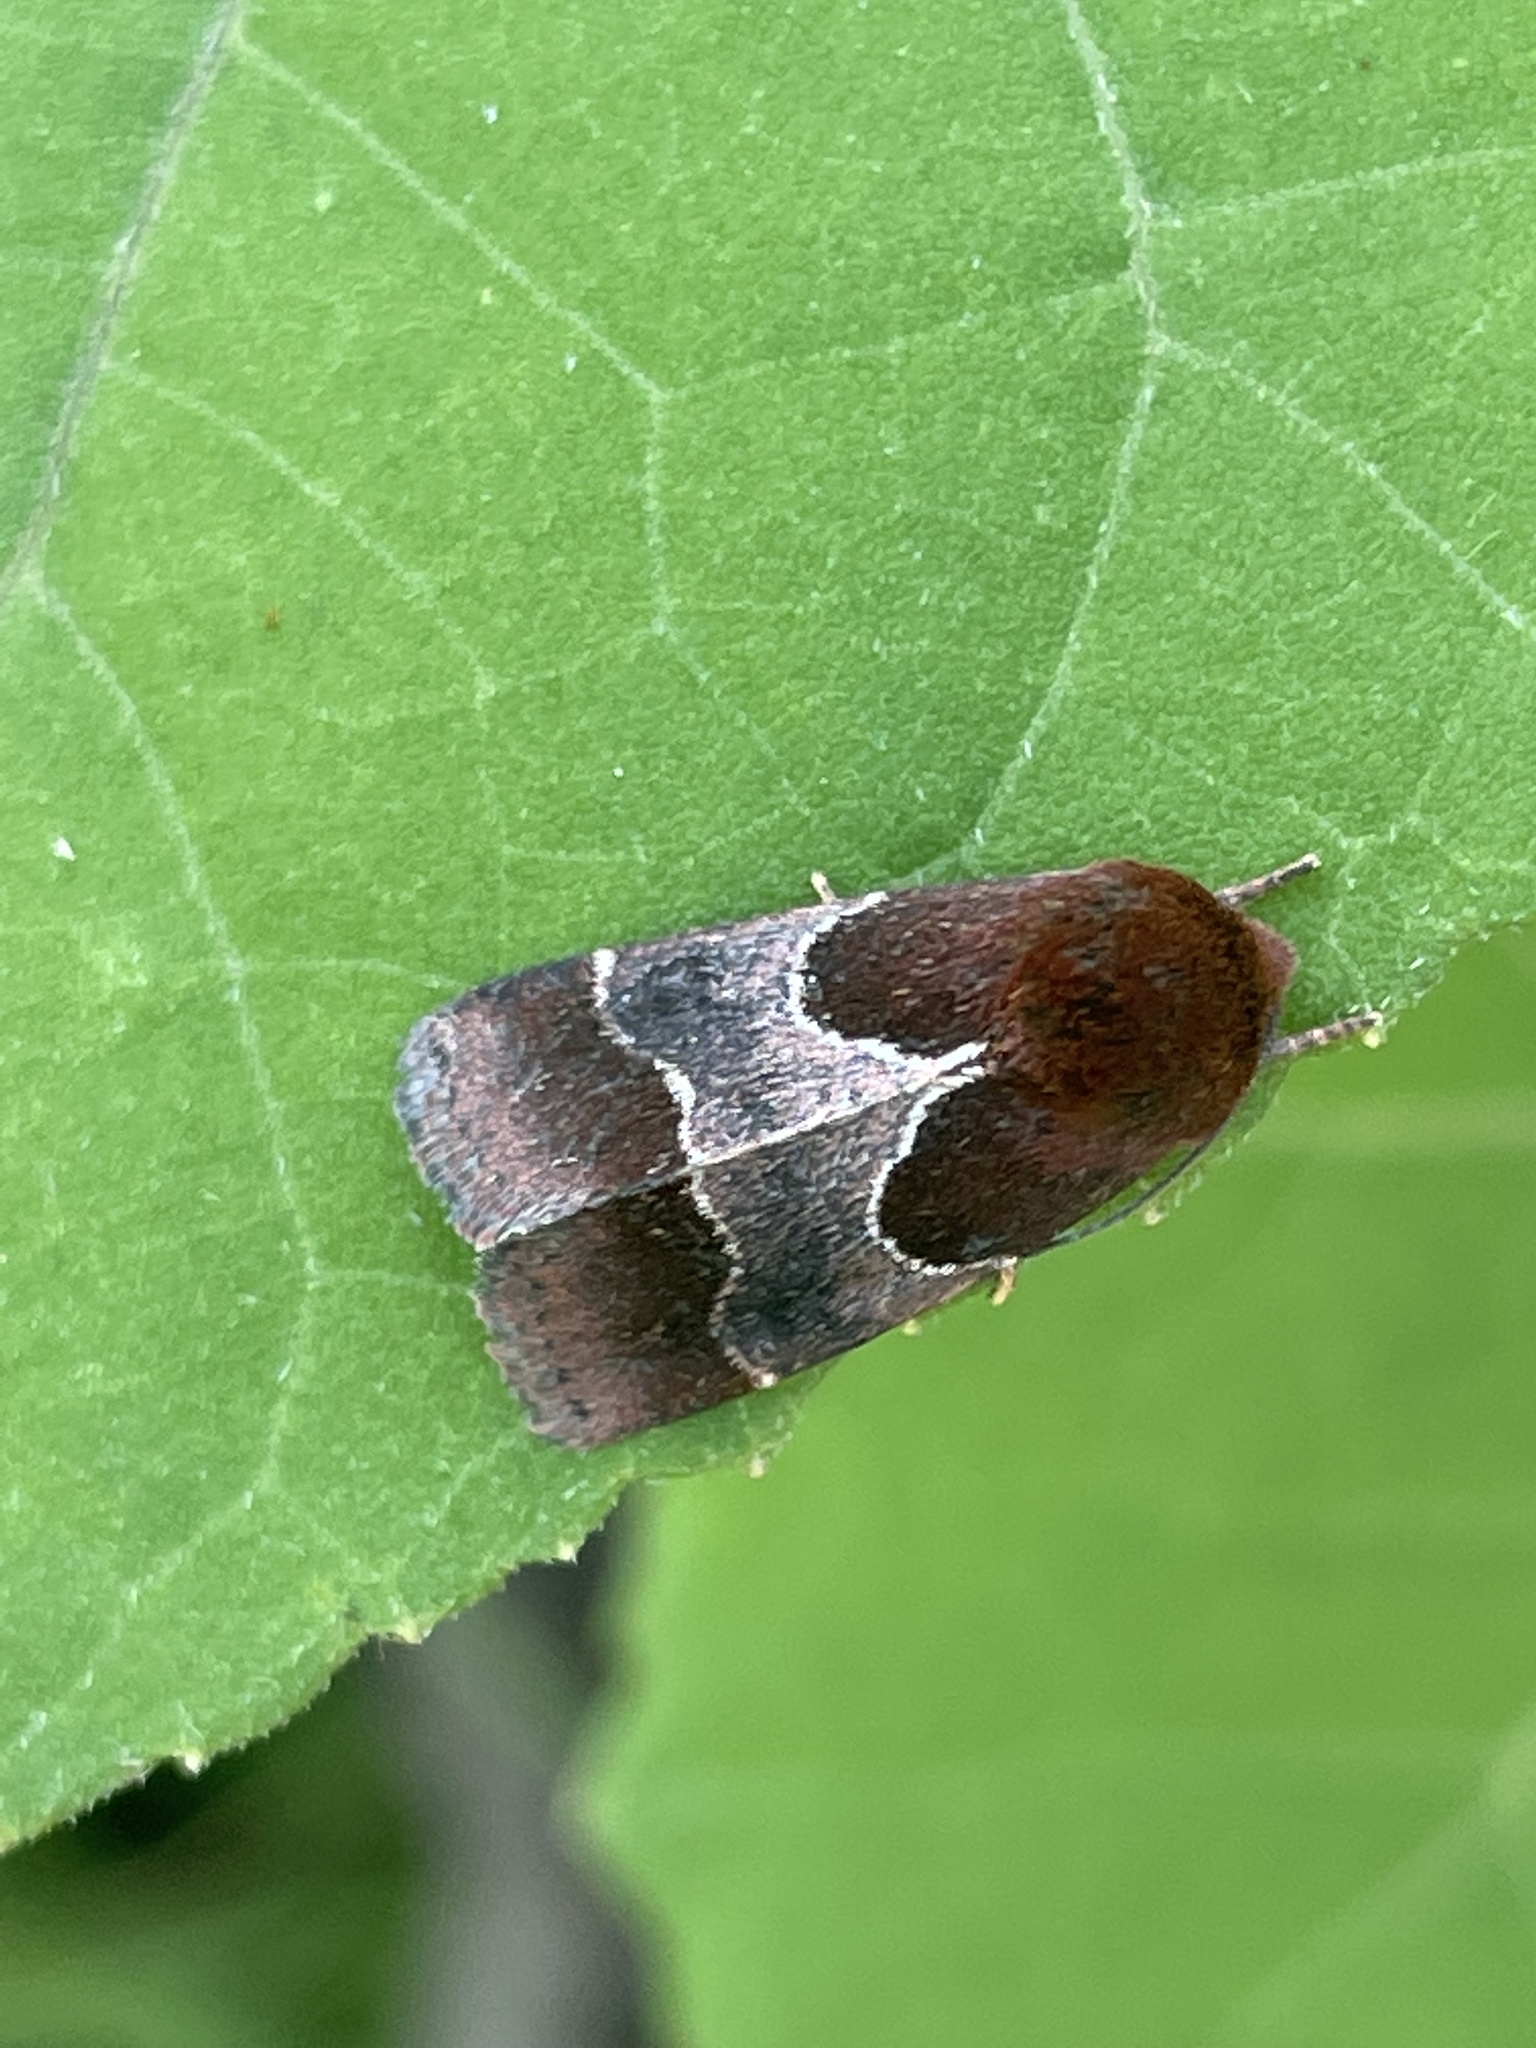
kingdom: Animalia
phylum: Arthropoda
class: Insecta
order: Lepidoptera
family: Noctuidae
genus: Schinia
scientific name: Schinia arcigera
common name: Arcigera flower moth
